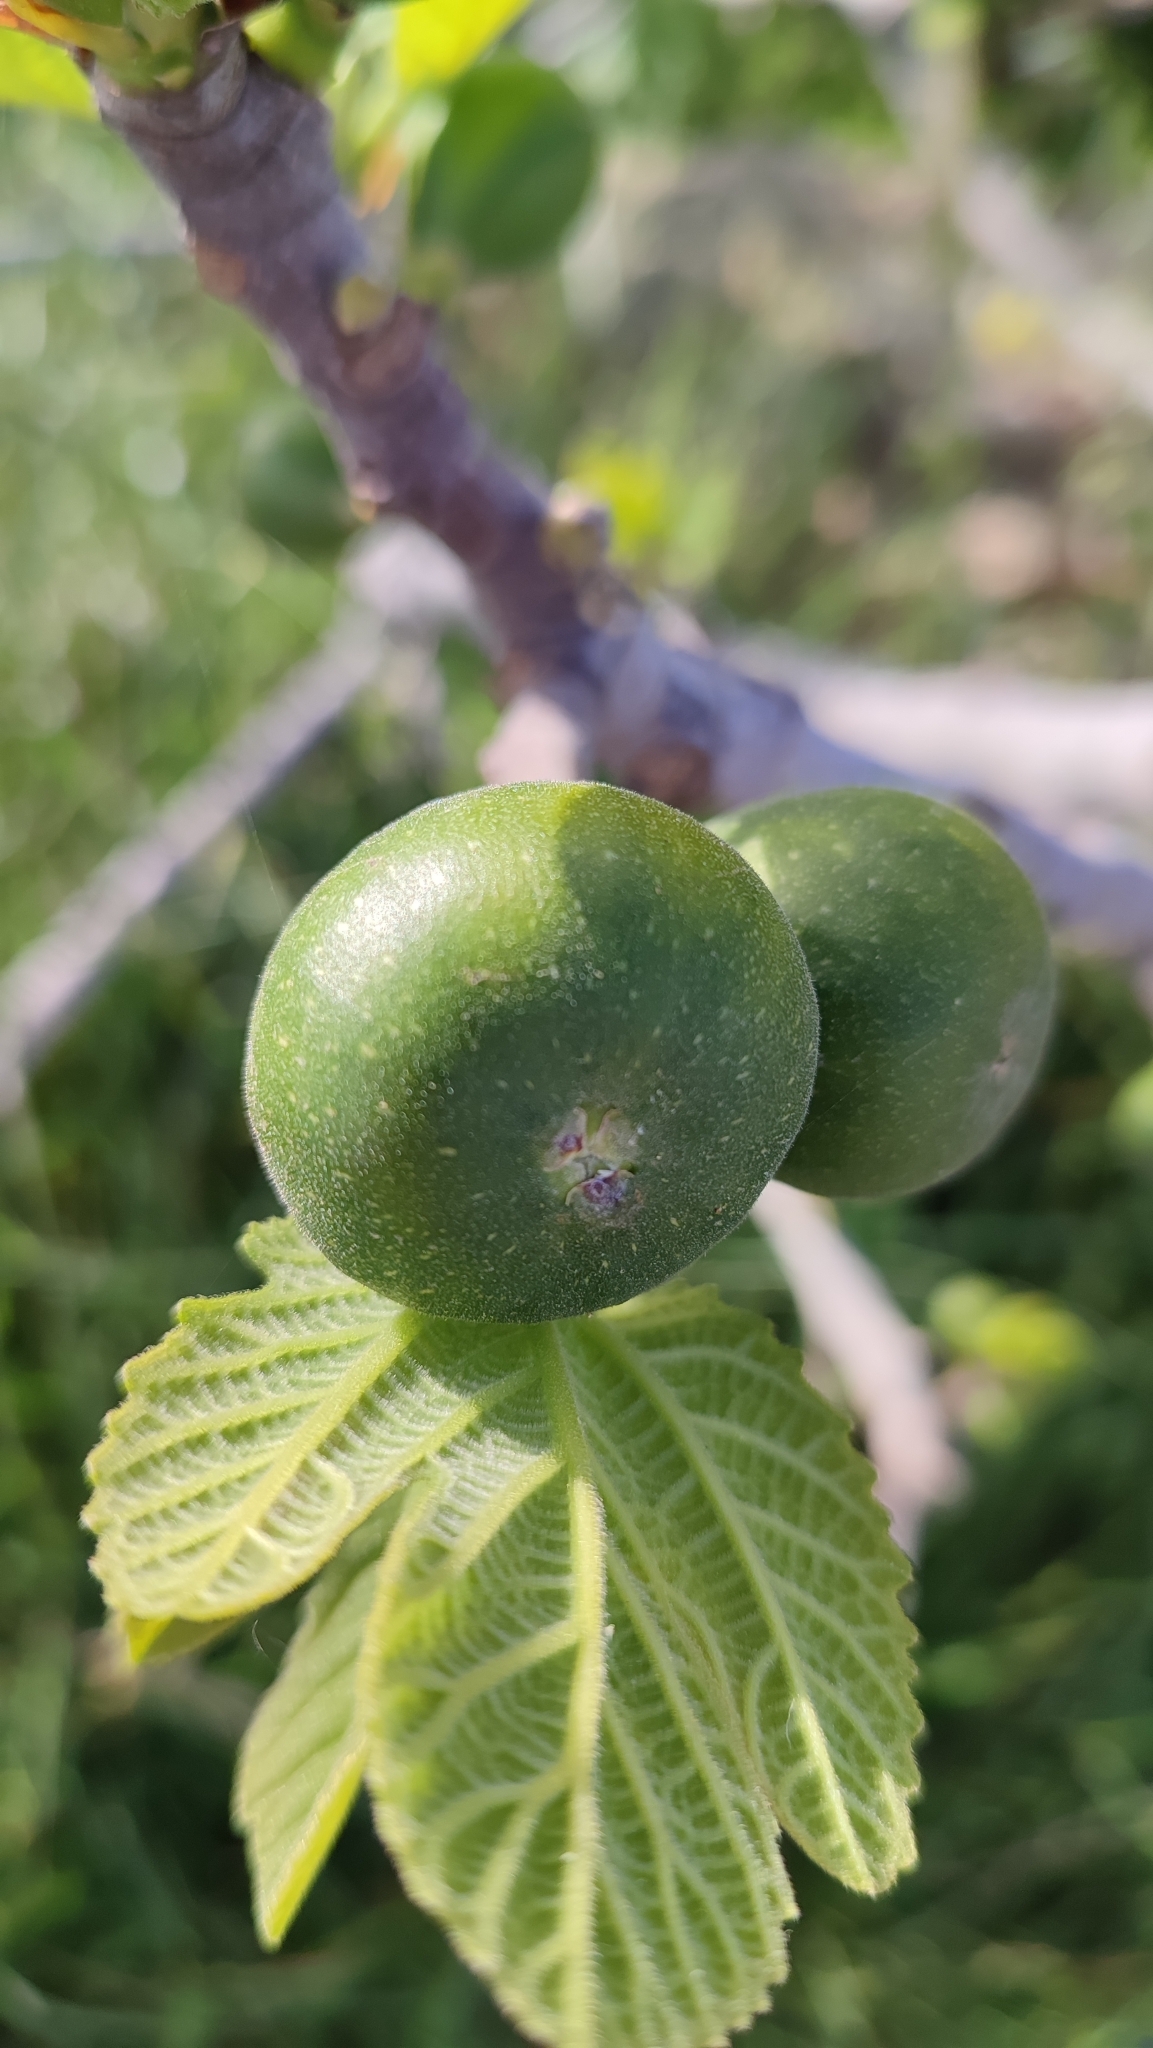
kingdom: Plantae
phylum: Tracheophyta
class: Magnoliopsida
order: Rosales
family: Moraceae
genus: Ficus
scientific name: Ficus carica
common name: Fig
